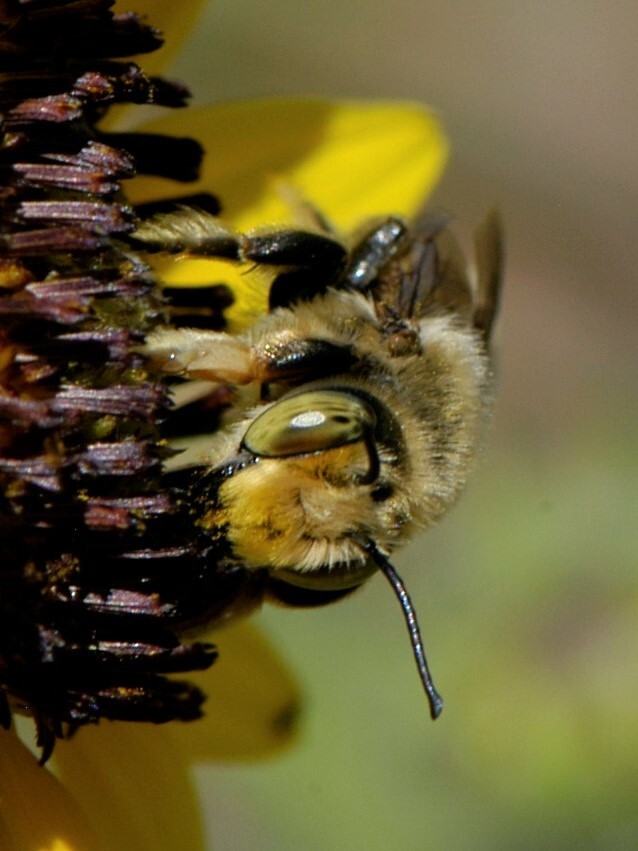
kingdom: Animalia
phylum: Arthropoda
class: Insecta
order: Hymenoptera
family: Megachilidae
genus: Megachile
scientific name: Megachile fortis
